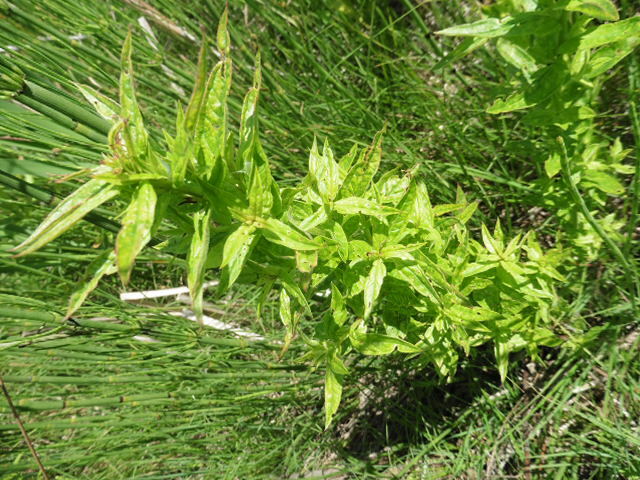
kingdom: Plantae
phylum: Tracheophyta
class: Magnoliopsida
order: Myrtales
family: Lythraceae
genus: Lythrum
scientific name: Lythrum salicaria
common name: Purple loosestrife
